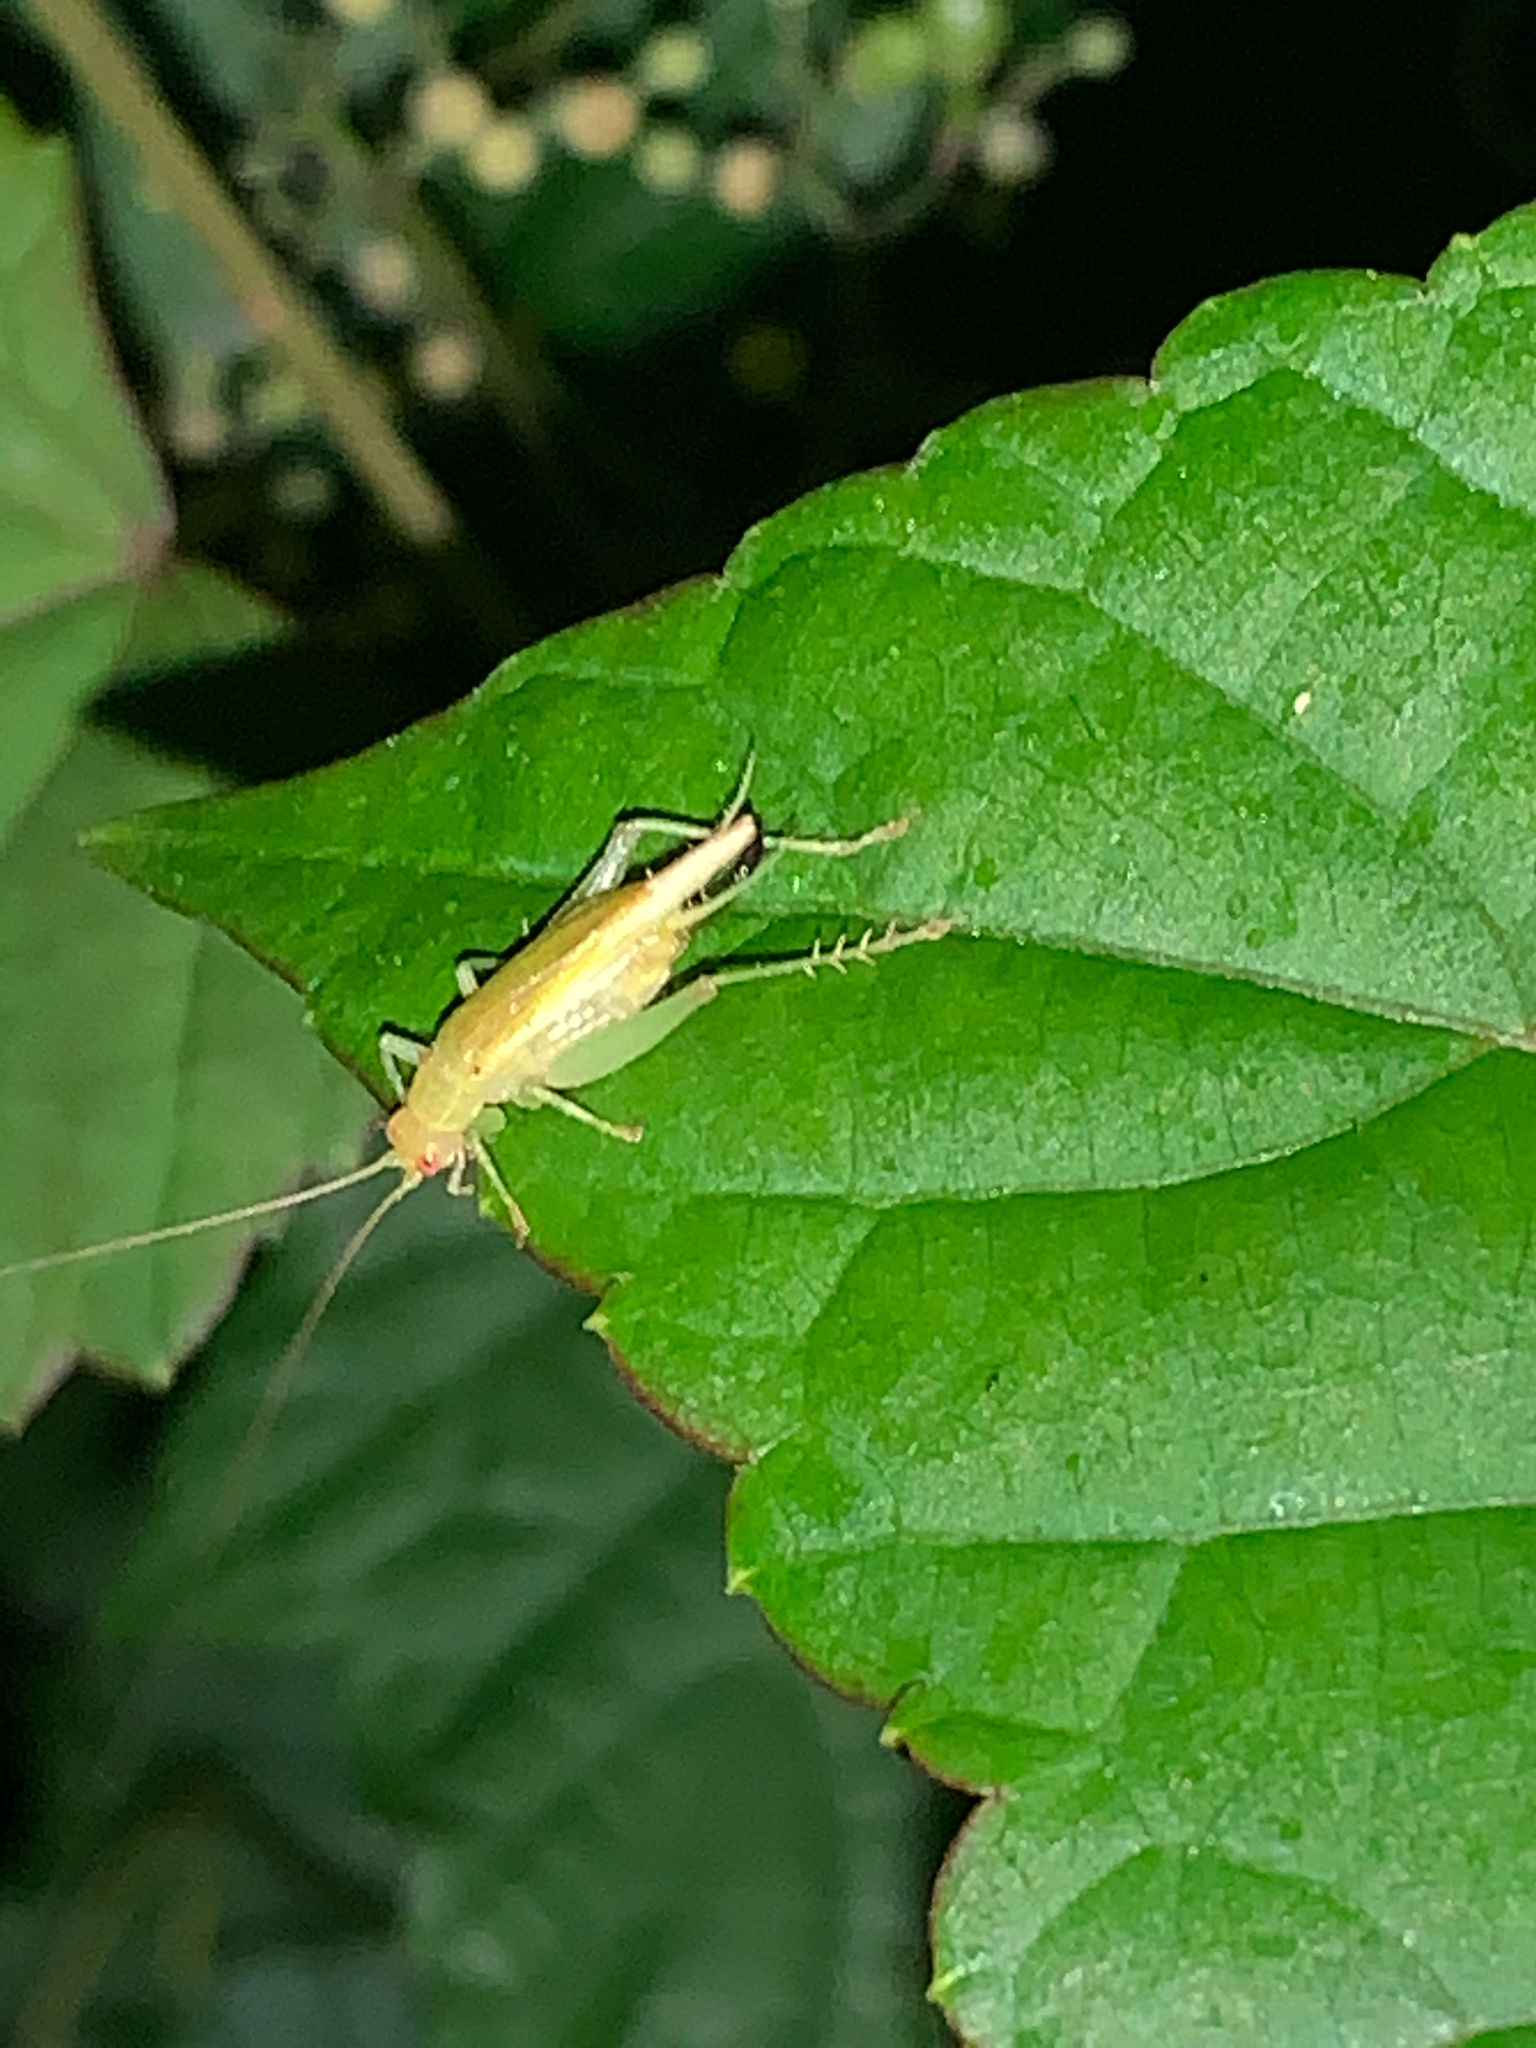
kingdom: Animalia
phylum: Arthropoda
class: Insecta
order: Orthoptera
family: Trigonidiidae
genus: Cyrtoxipha
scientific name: Cyrtoxipha columbiana
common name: Columbian trig
